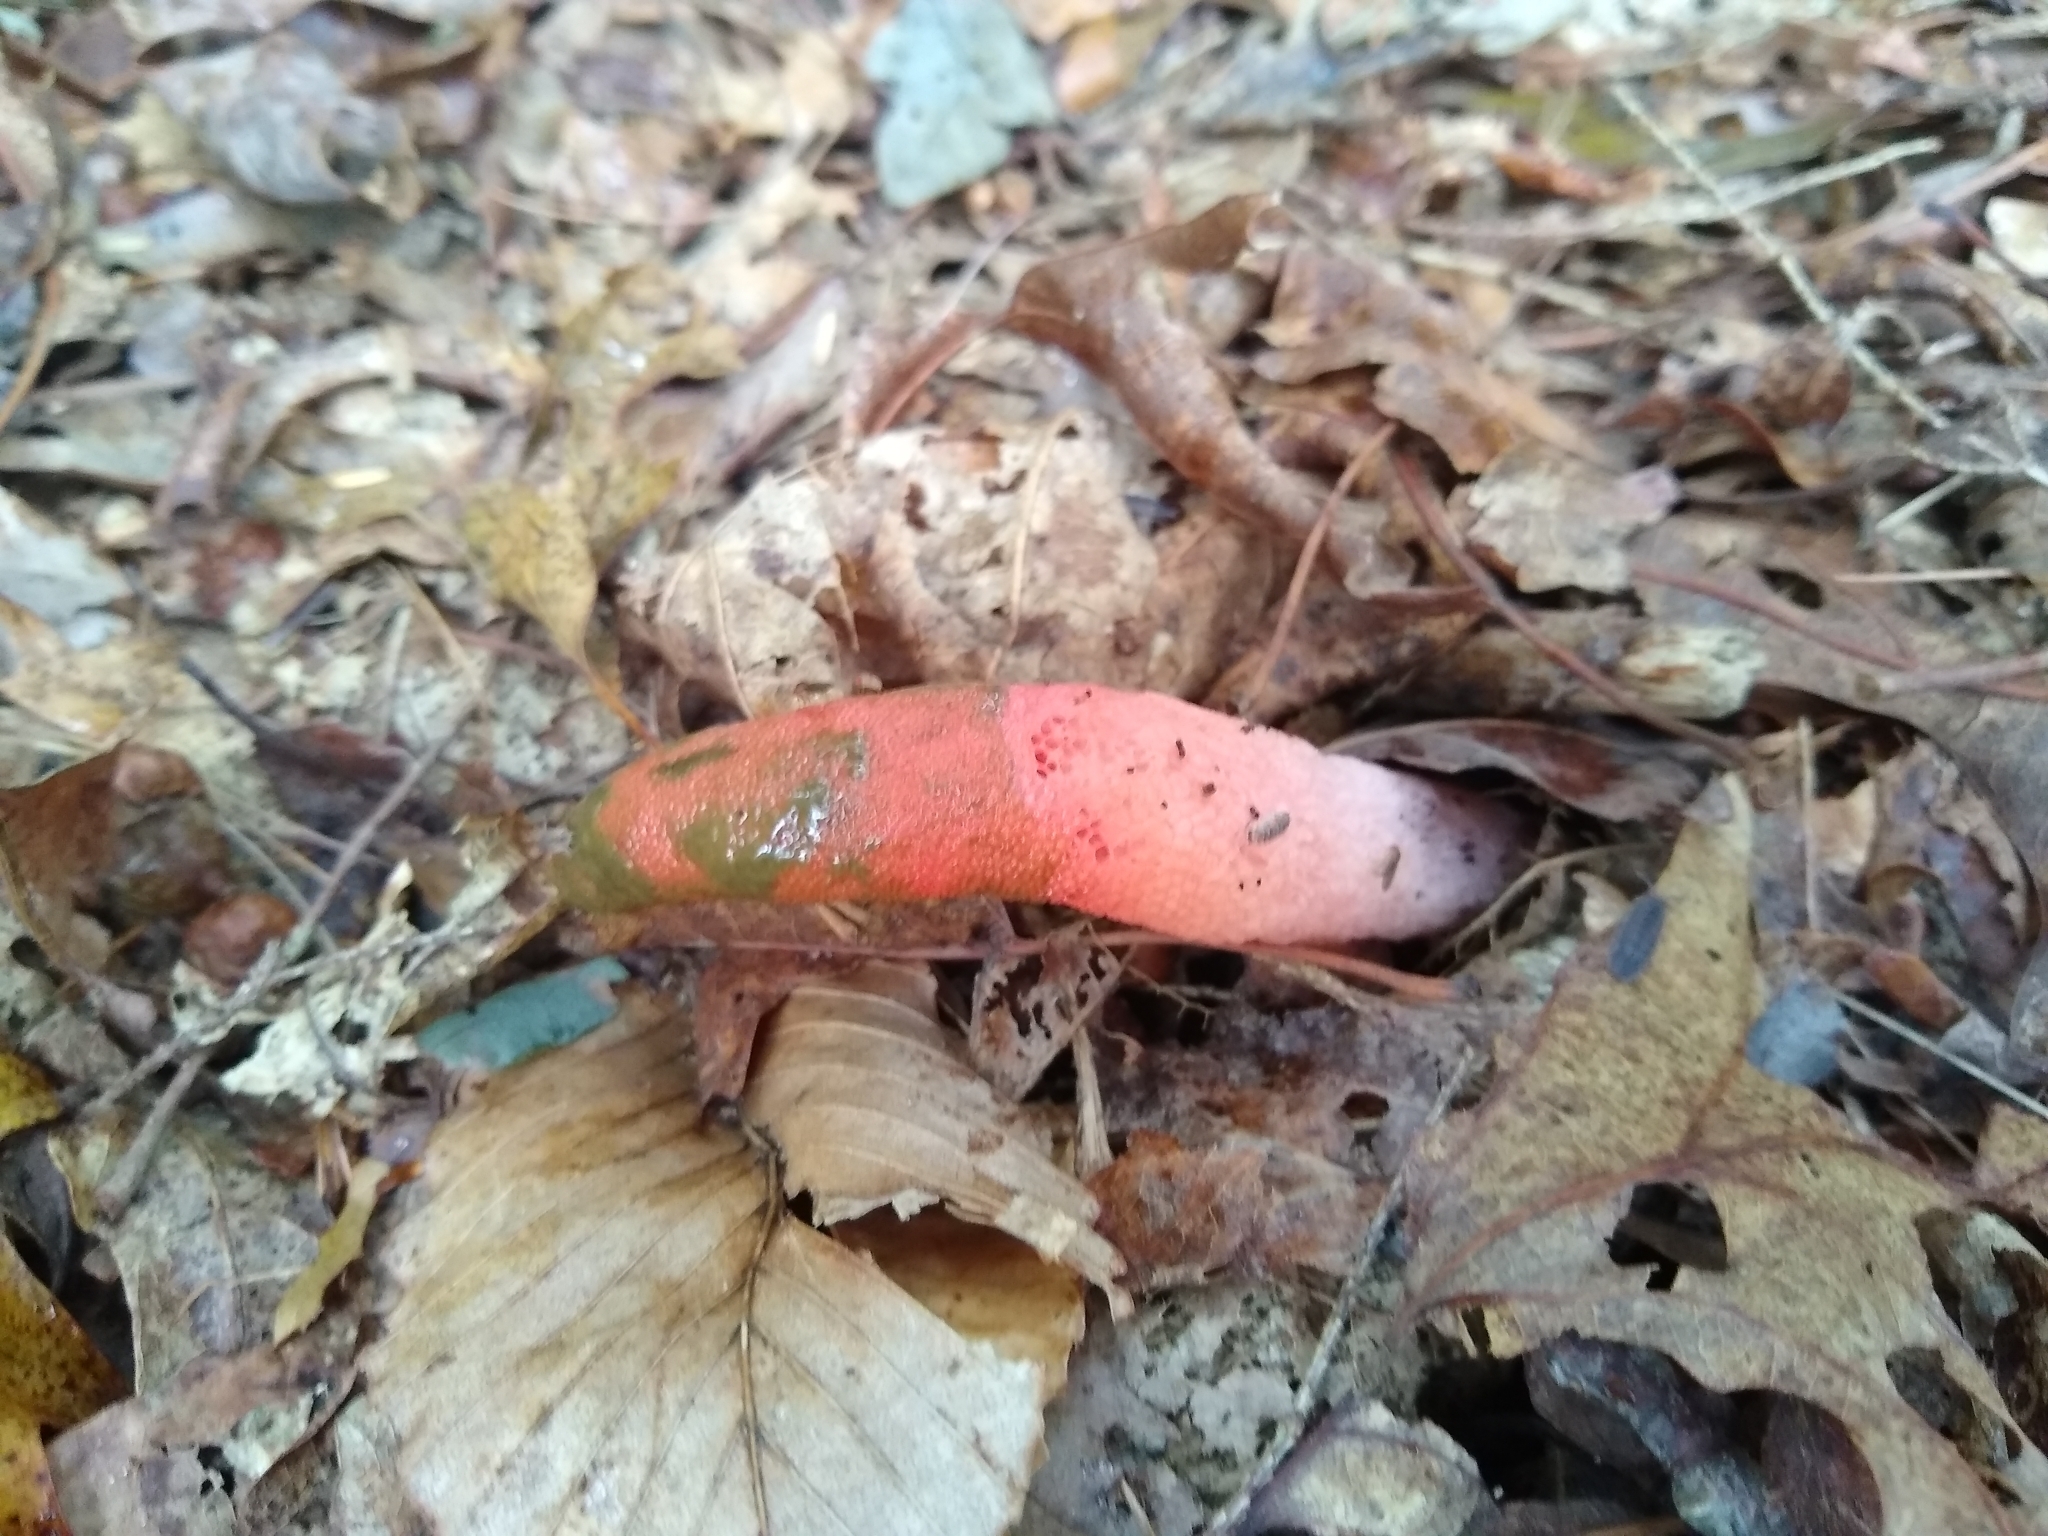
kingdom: Fungi
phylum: Basidiomycota
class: Agaricomycetes
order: Phallales
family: Phallaceae
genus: Mutinus
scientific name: Mutinus elegans
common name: Devil's dipstick
